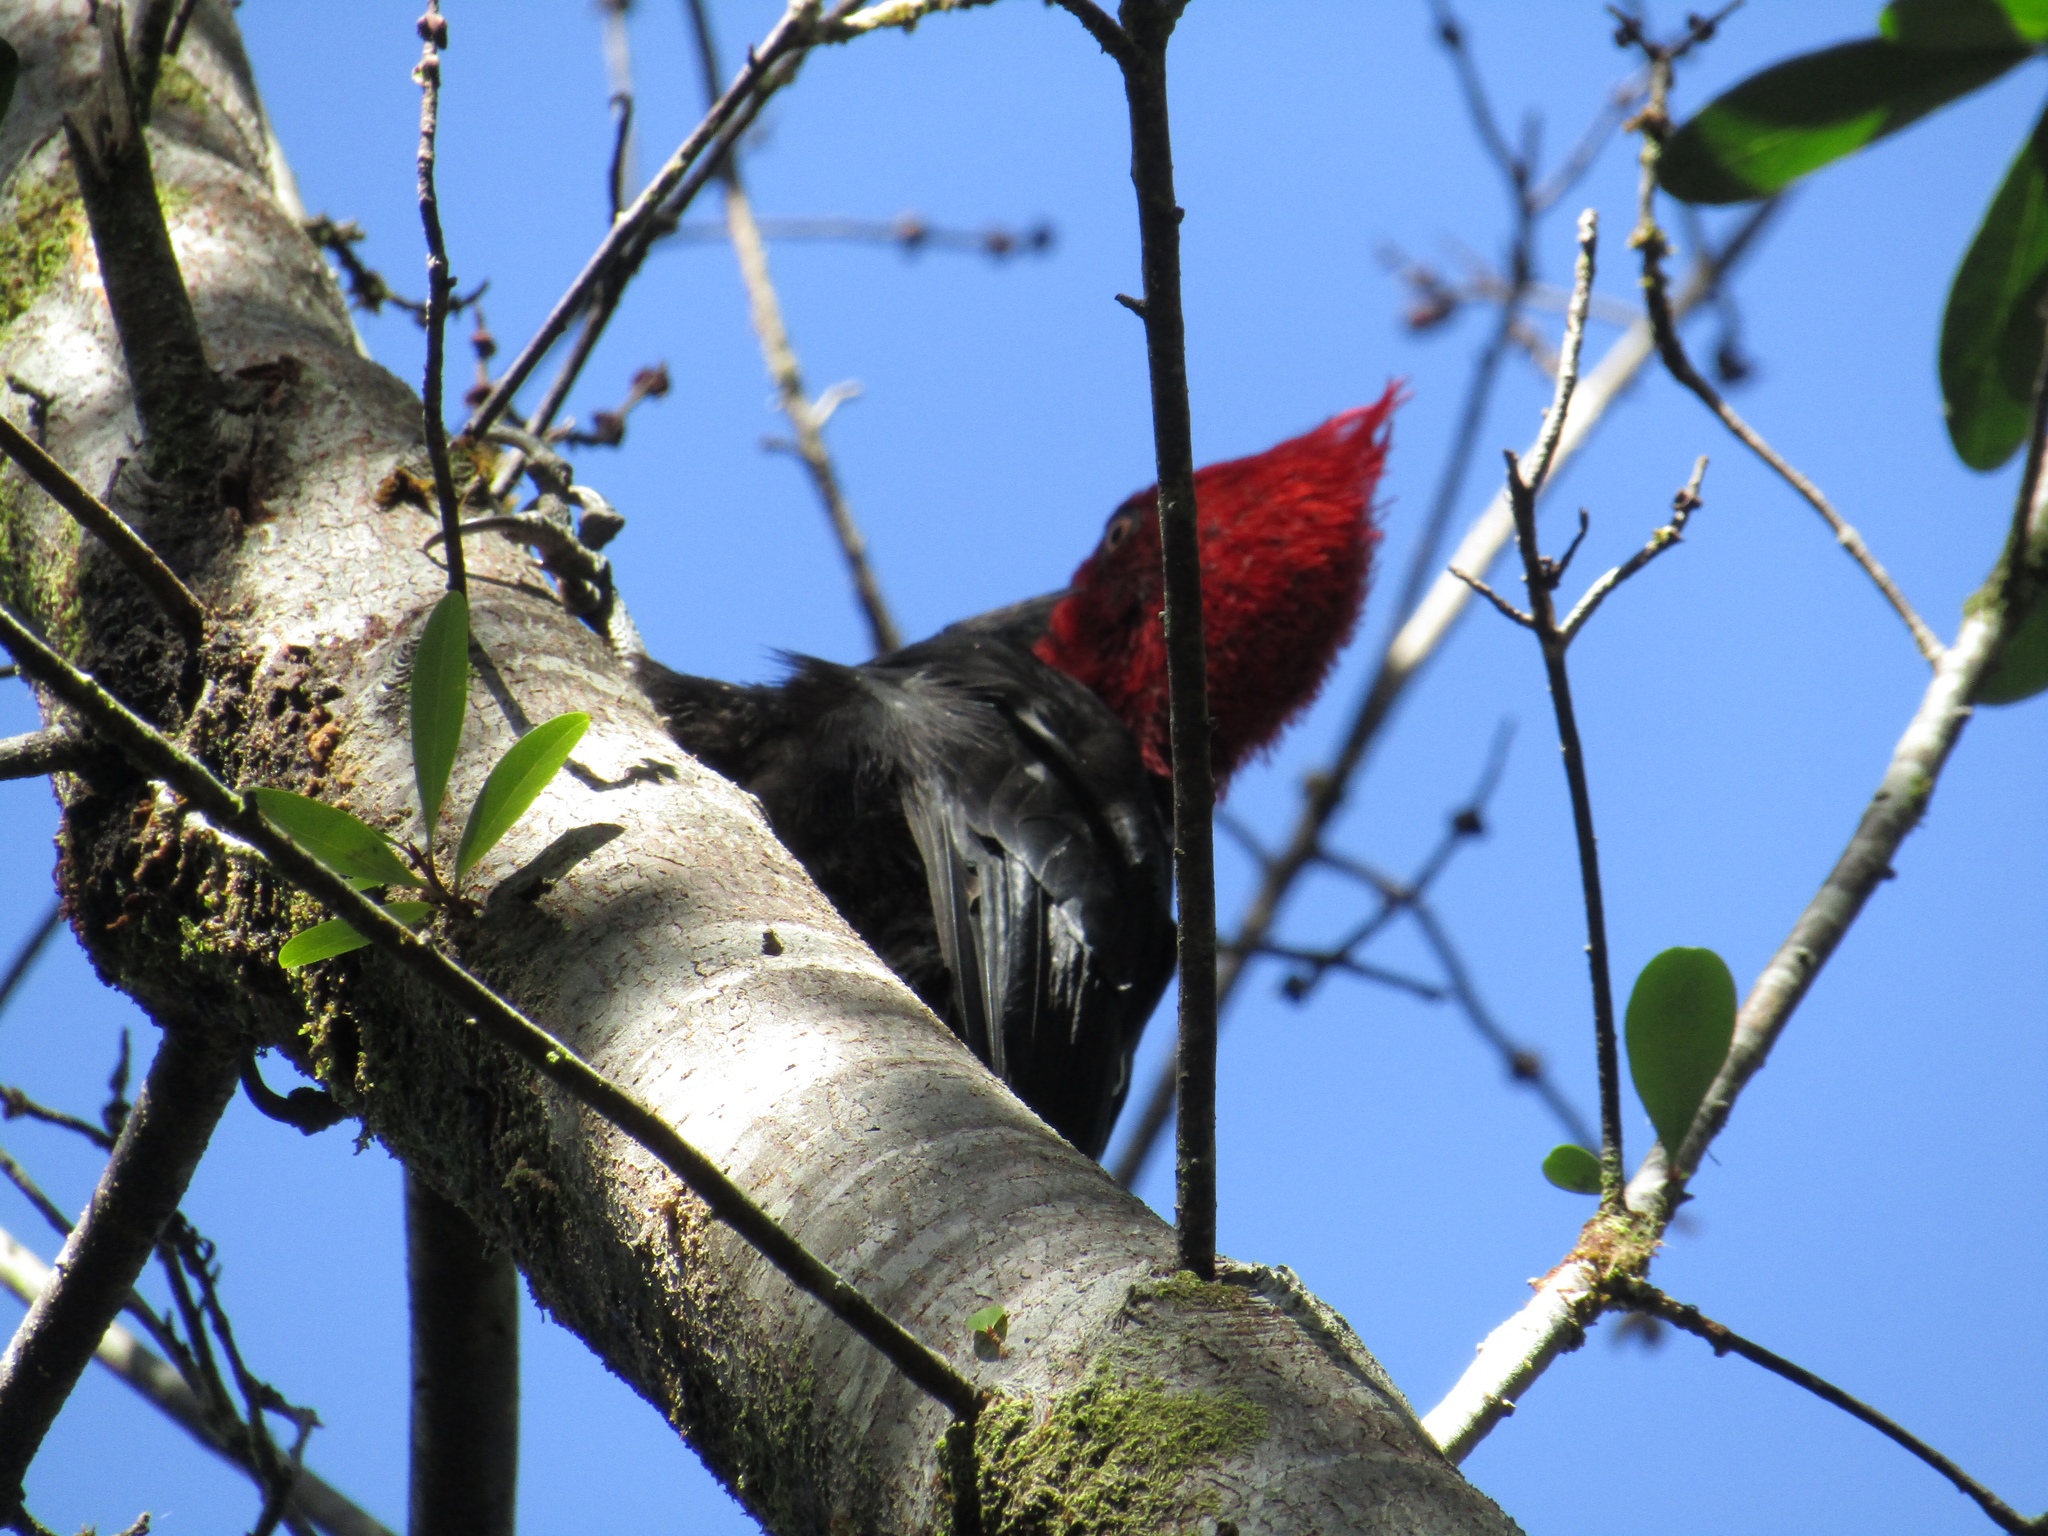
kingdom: Animalia
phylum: Chordata
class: Aves
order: Piciformes
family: Picidae
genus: Campephilus
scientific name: Campephilus magellanicus
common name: Magellanic woodpecker
